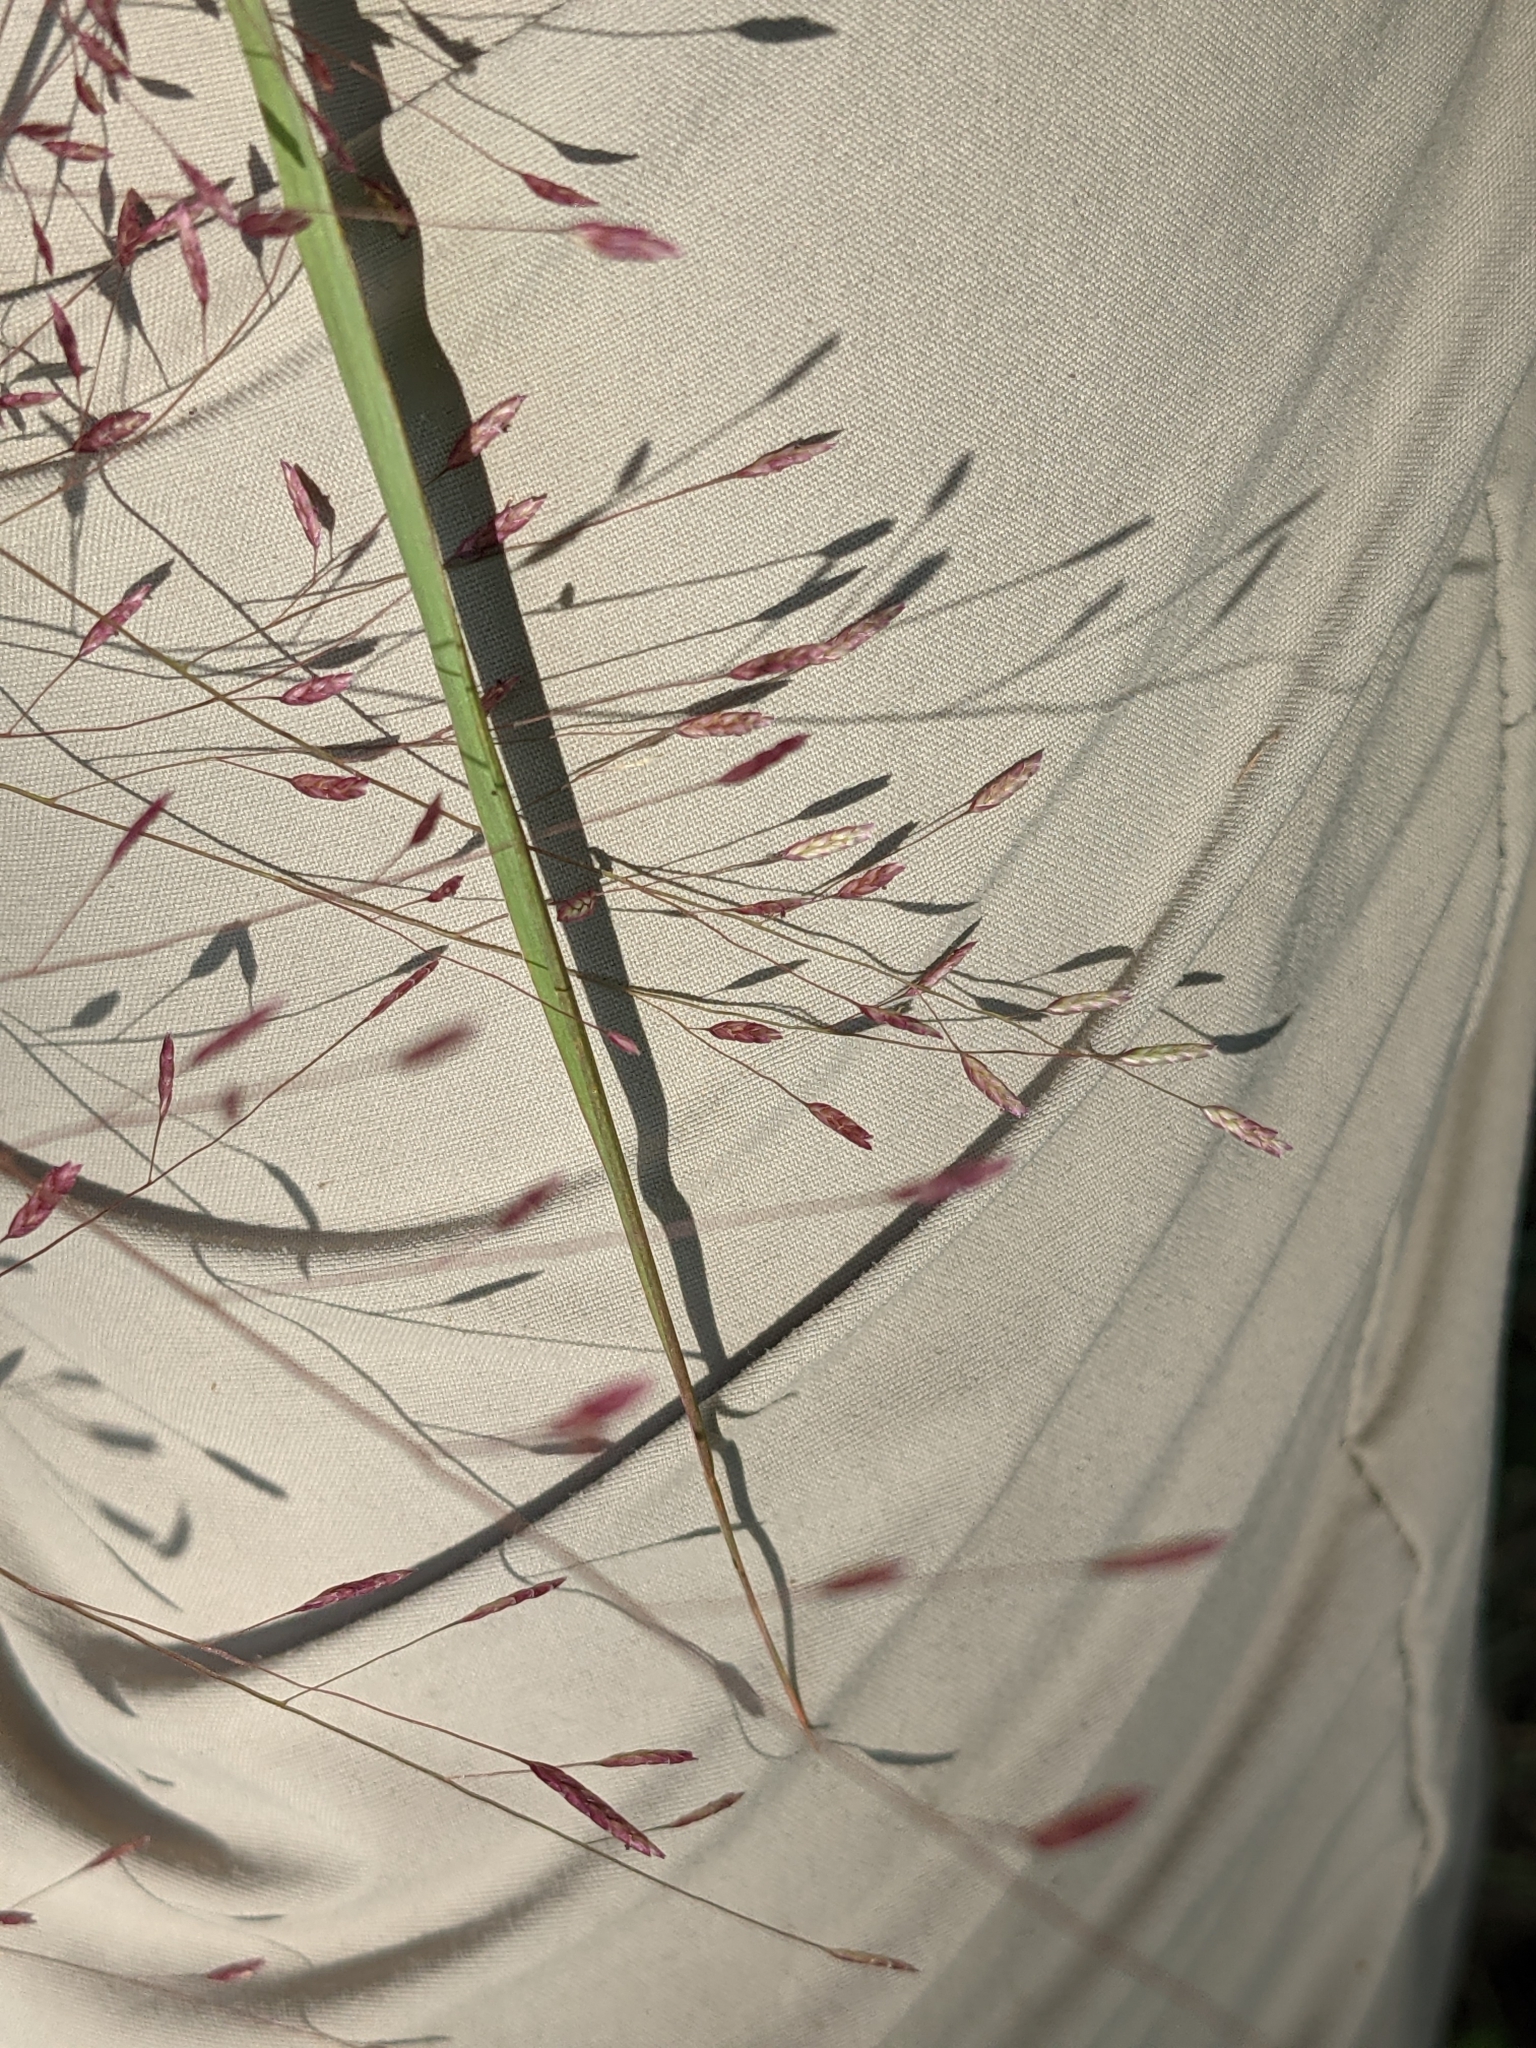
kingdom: Plantae
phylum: Tracheophyta
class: Liliopsida
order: Poales
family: Poaceae
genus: Eragrostis
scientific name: Eragrostis spectabilis
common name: Petticoat-climber
